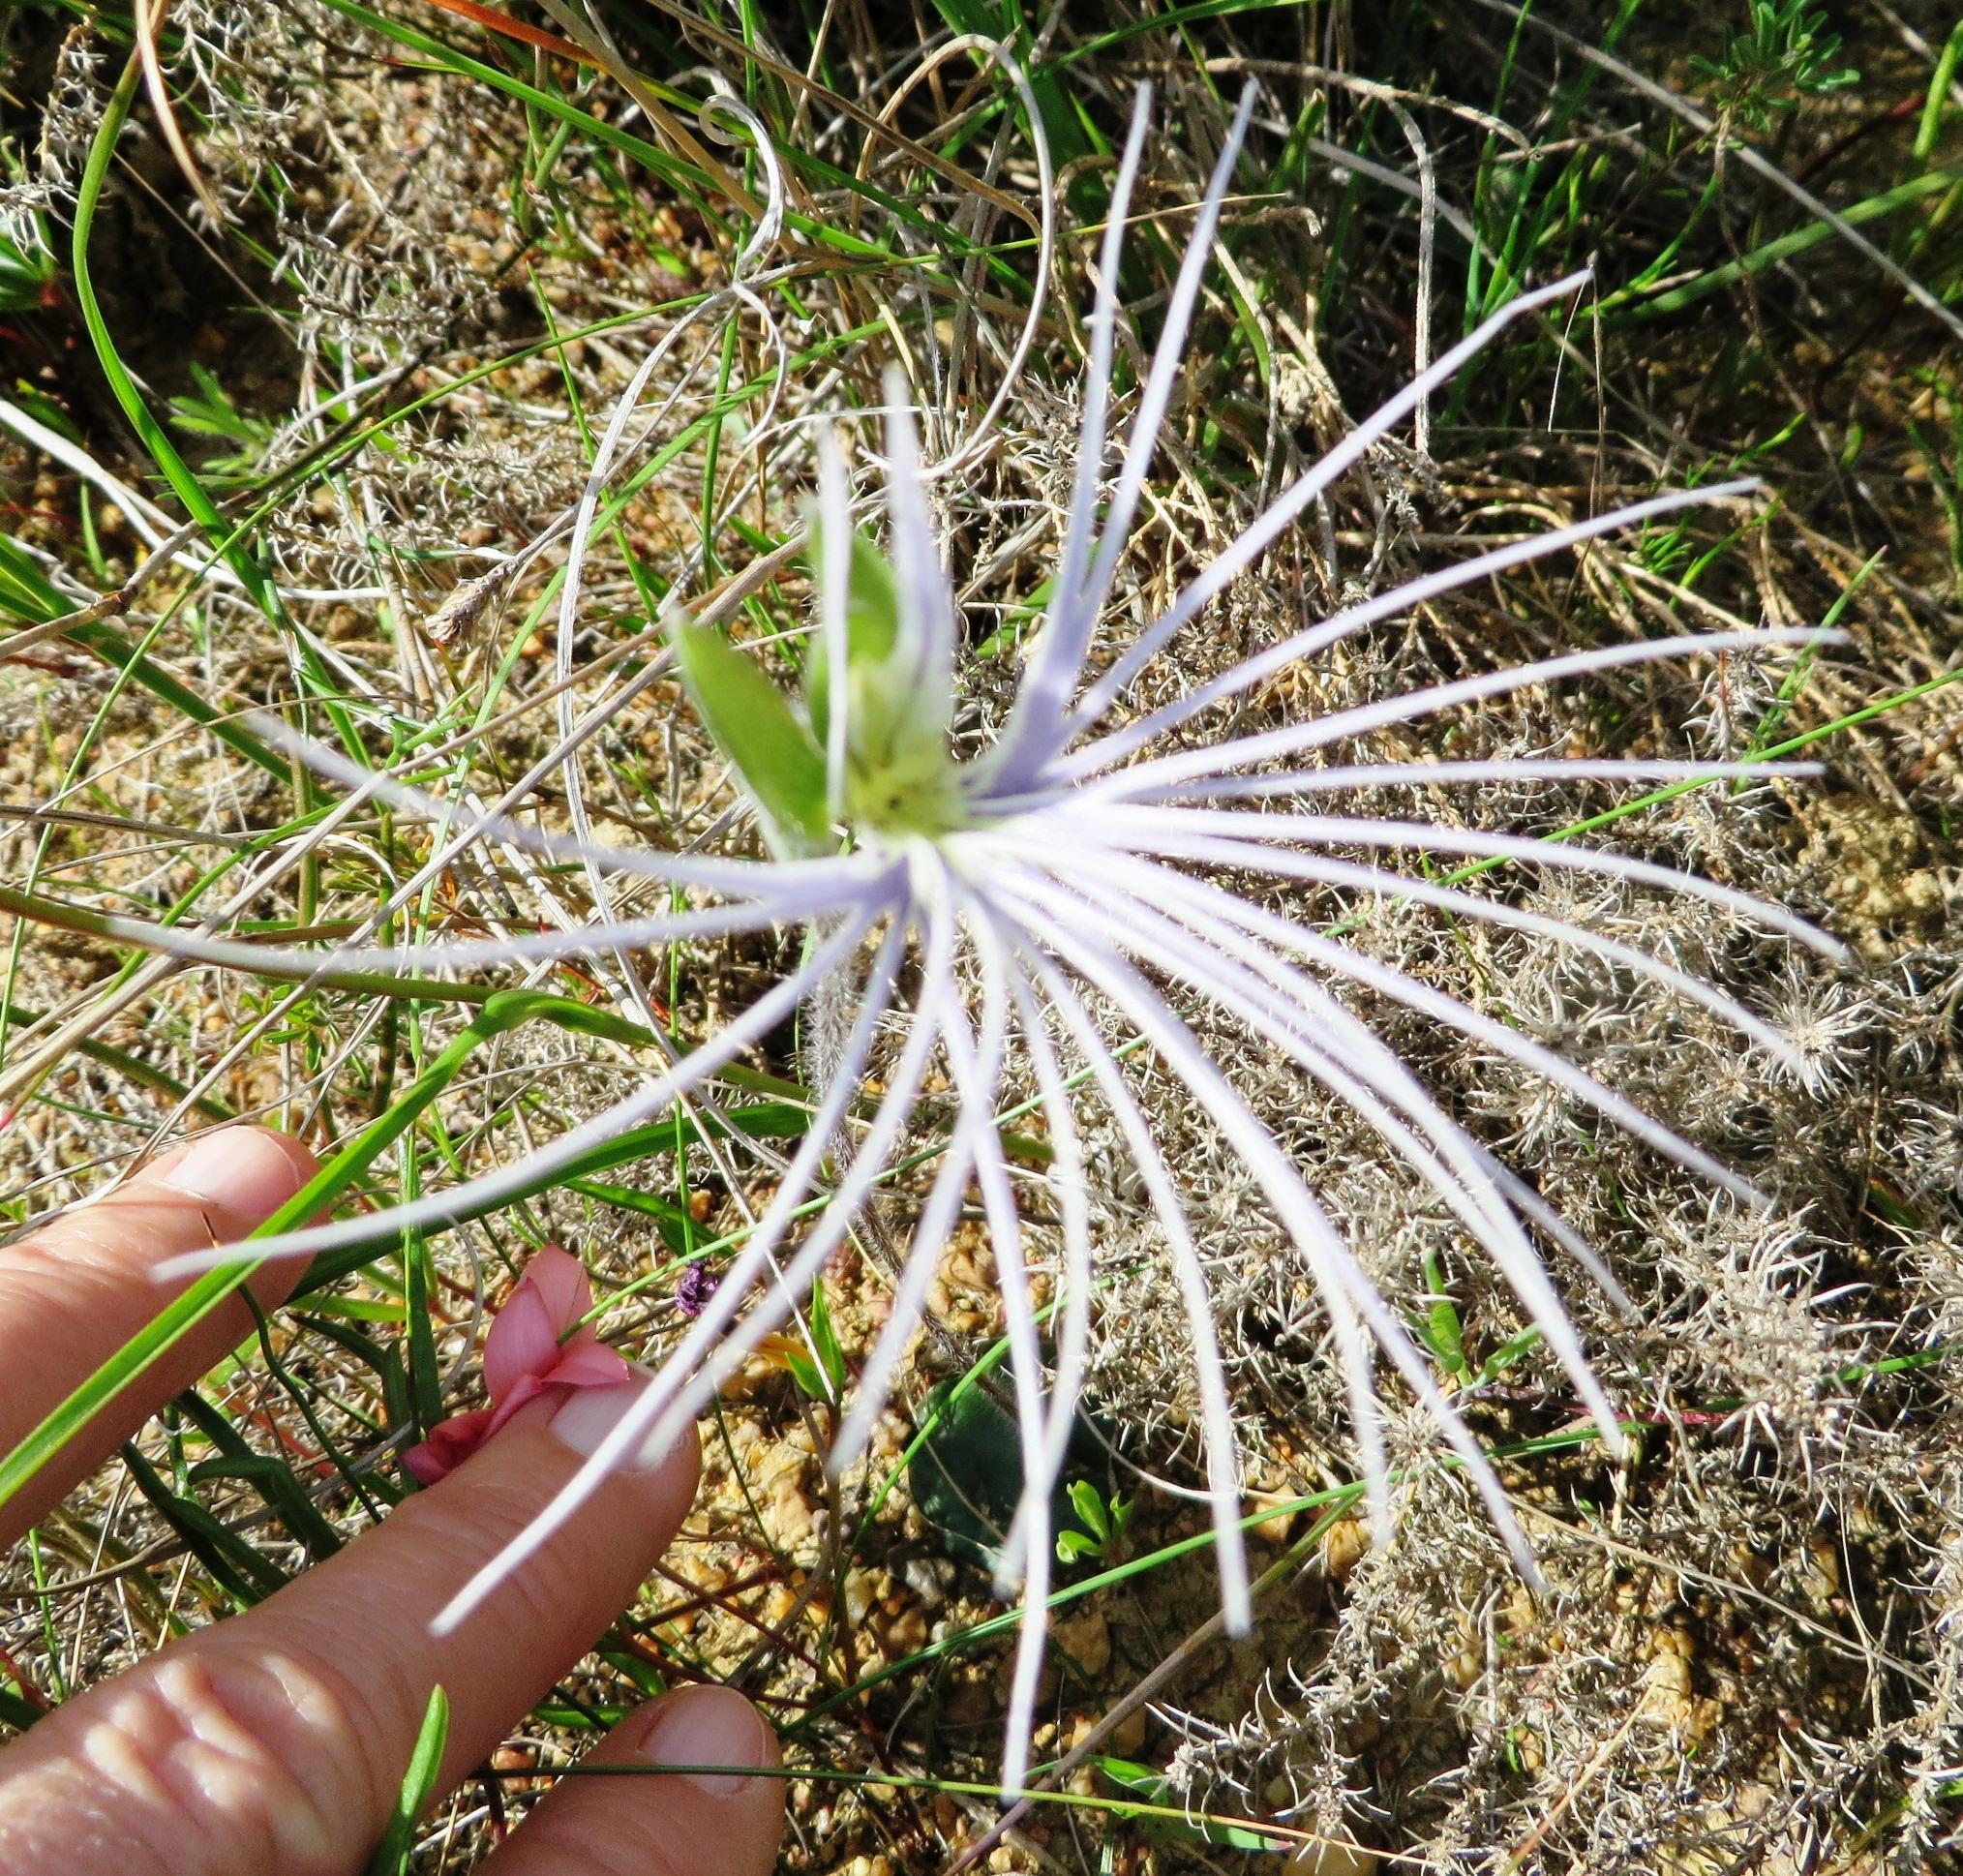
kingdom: Plantae
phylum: Tracheophyta
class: Liliopsida
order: Asparagales
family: Orchidaceae
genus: Holothrix
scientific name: Holothrix burmanniana
